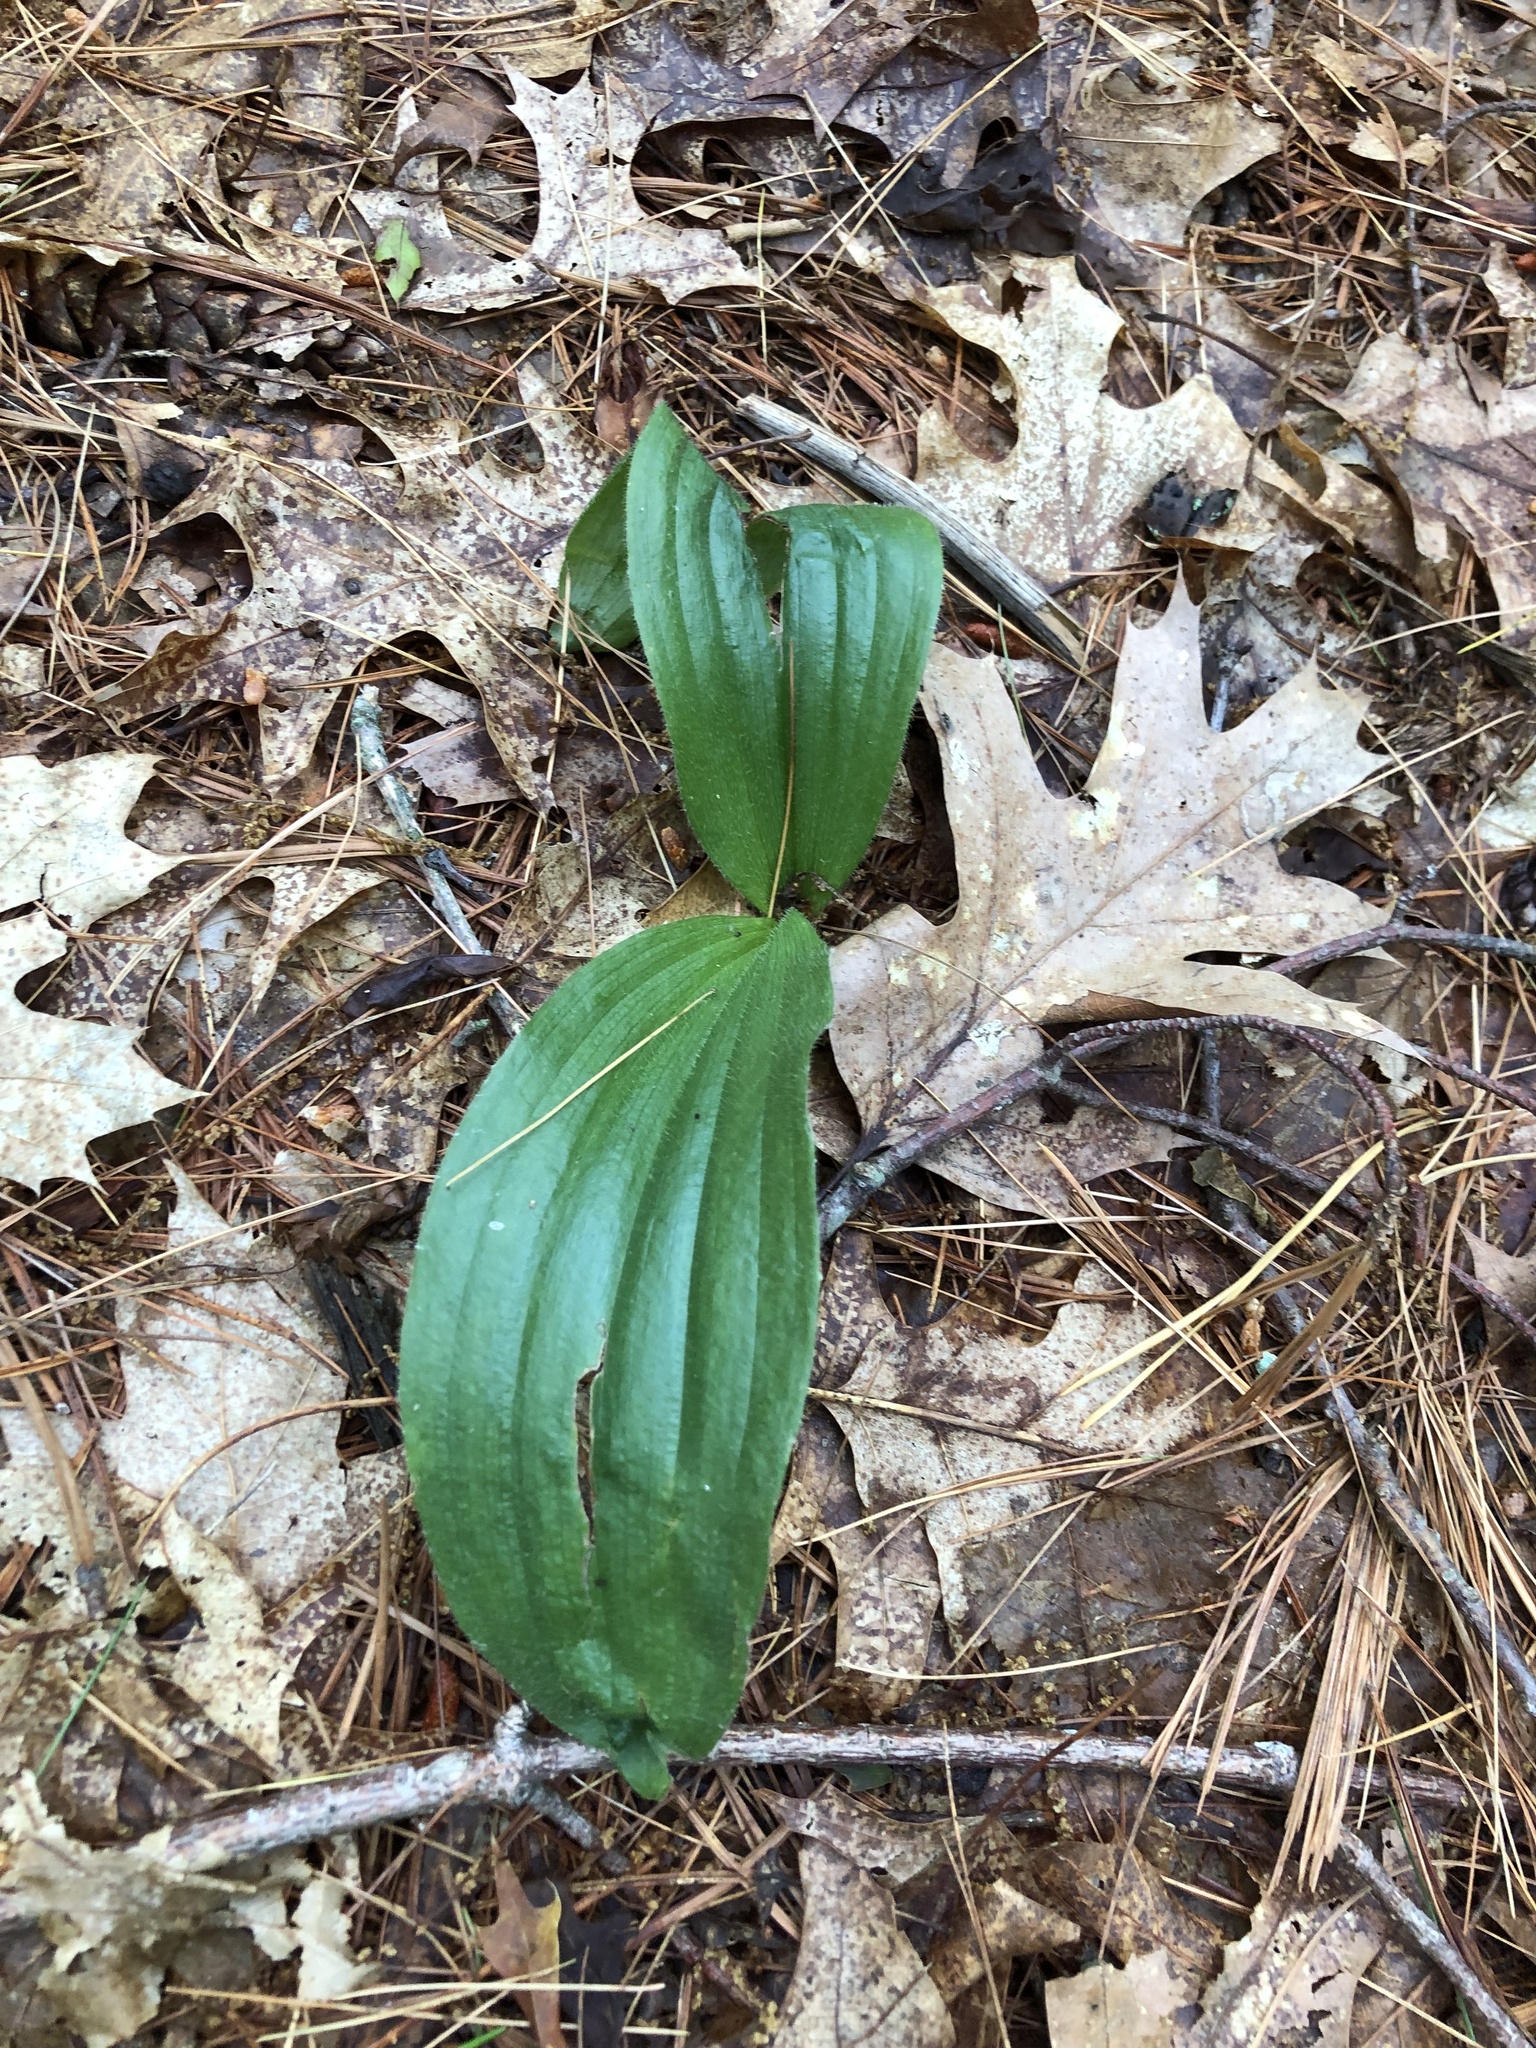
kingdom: Plantae
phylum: Tracheophyta
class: Liliopsida
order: Asparagales
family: Orchidaceae
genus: Cypripedium
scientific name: Cypripedium acaule
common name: Pink lady's-slipper
